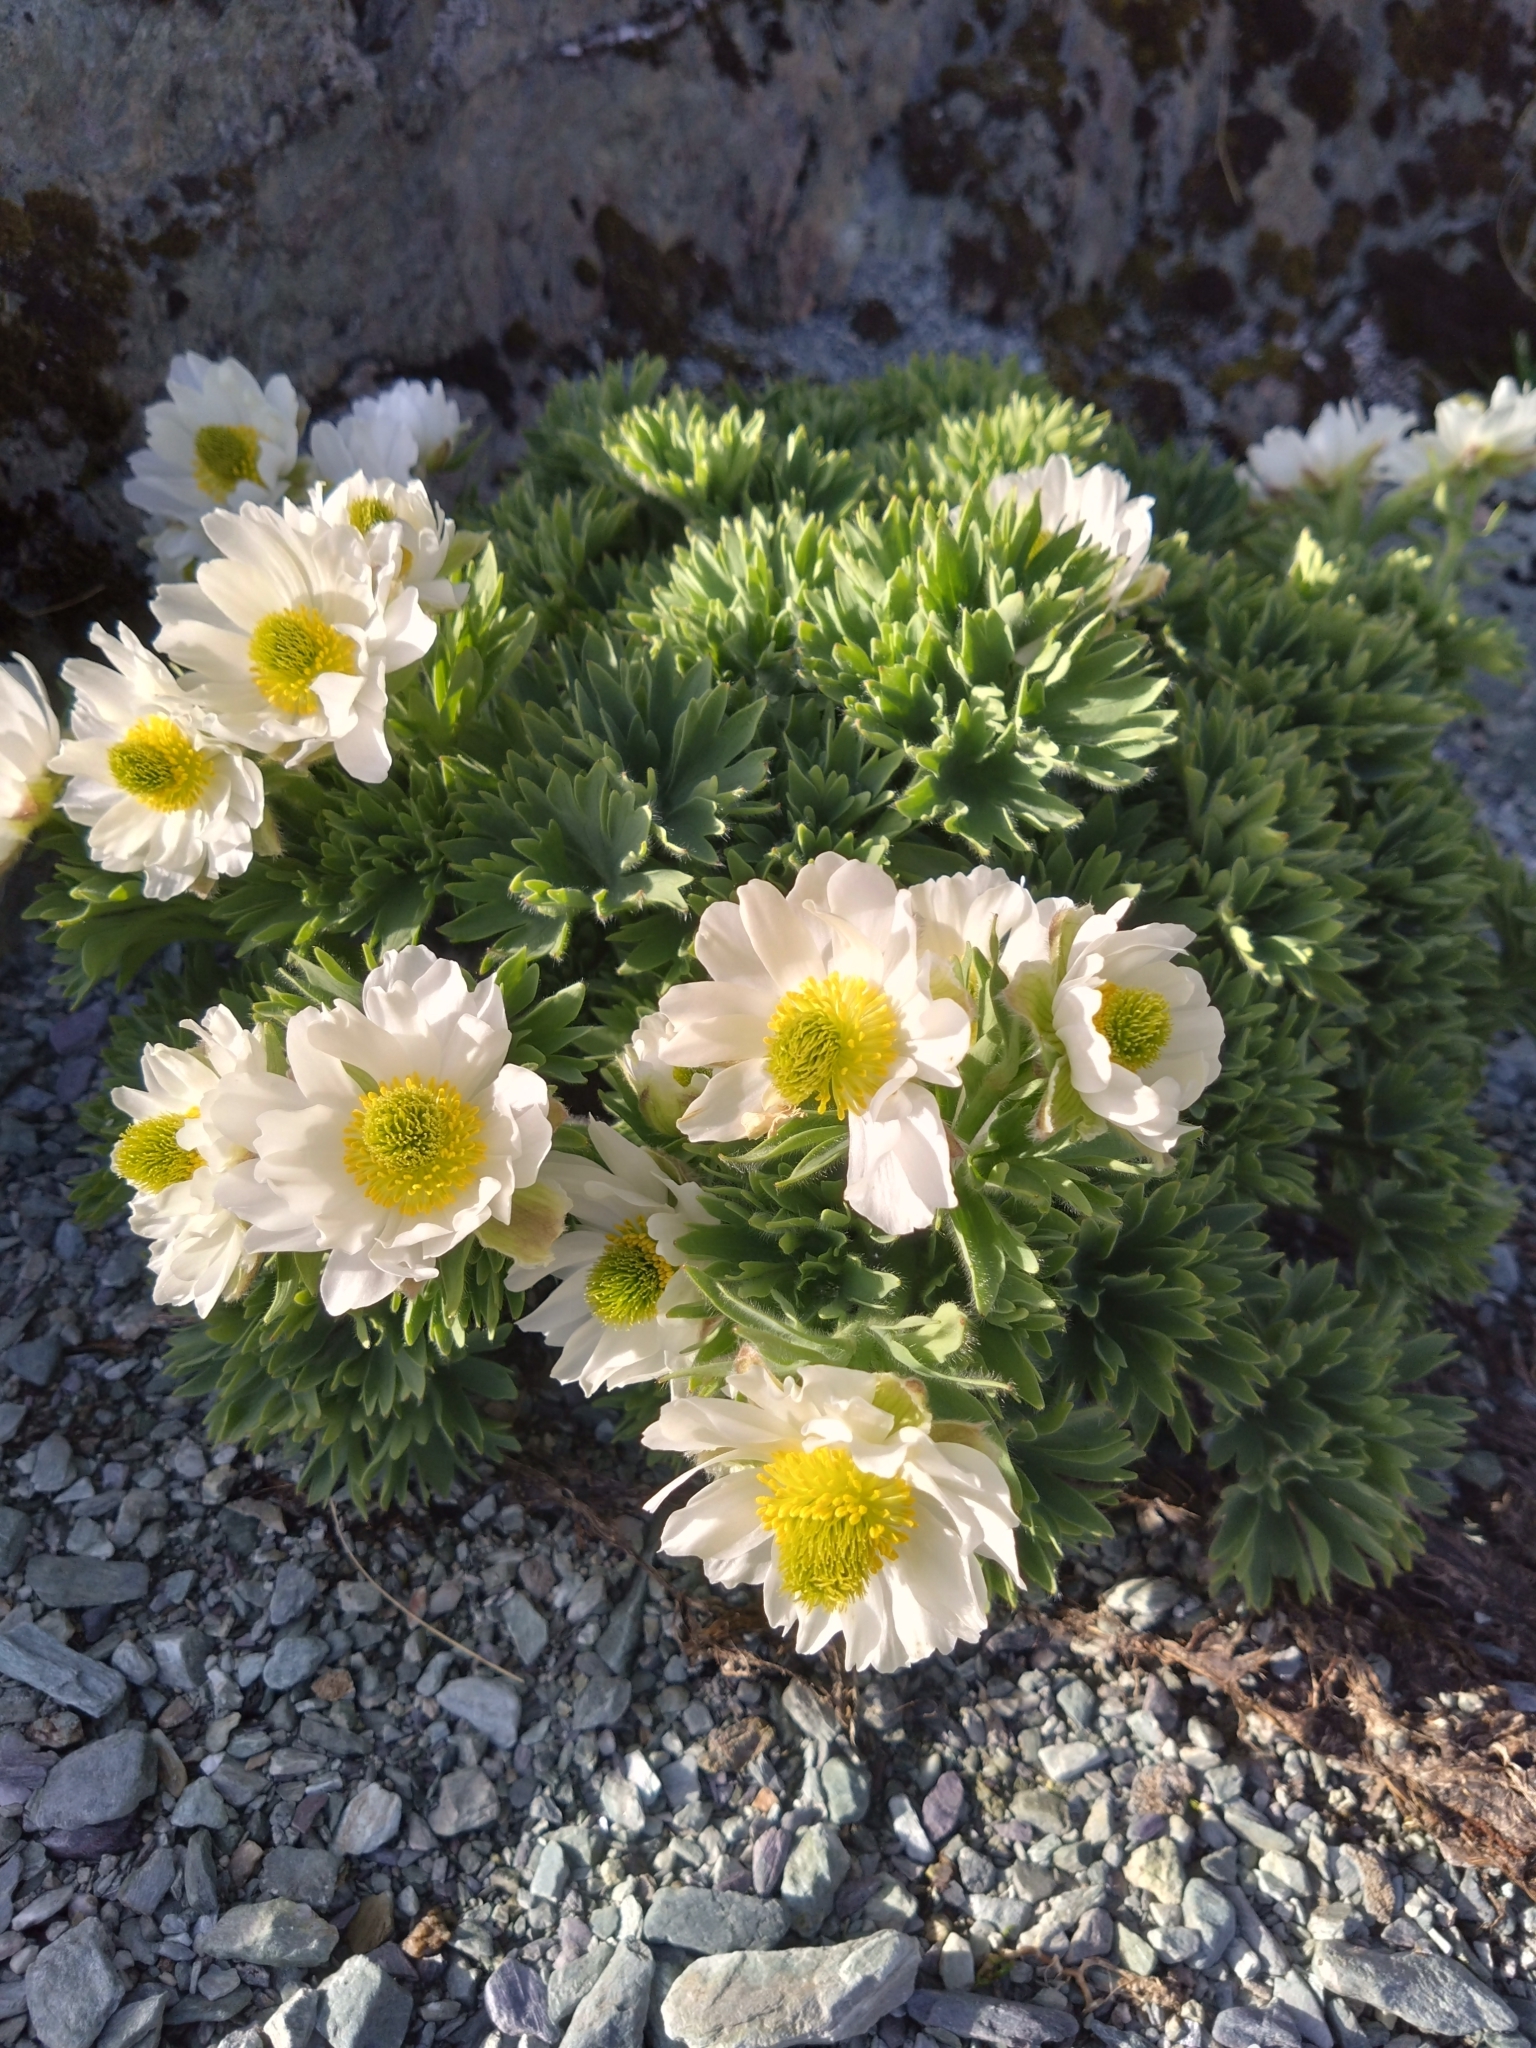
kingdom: Plantae
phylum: Tracheophyta
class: Magnoliopsida
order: Ranunculales
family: Ranunculaceae
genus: Ranunculus
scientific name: Ranunculus buchananii
